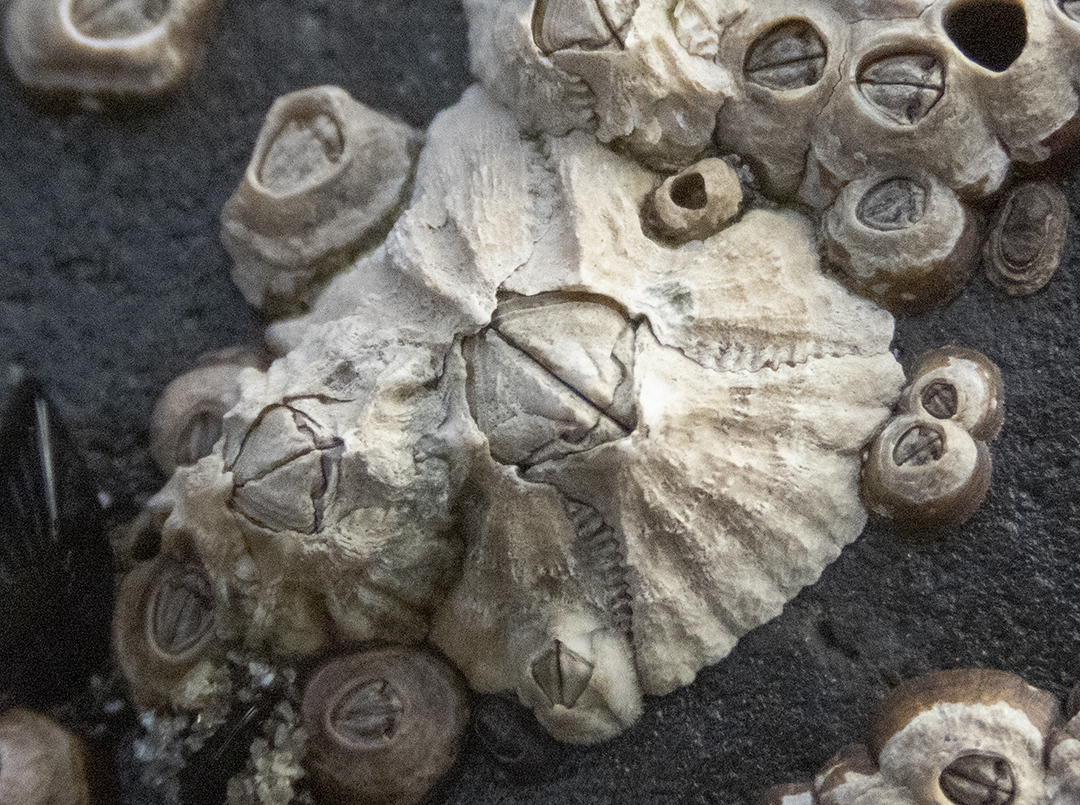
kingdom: Animalia
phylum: Arthropoda
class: Maxillopoda
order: Sessilia
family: Tetraclitidae
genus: Epopella
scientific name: Epopella plicata
